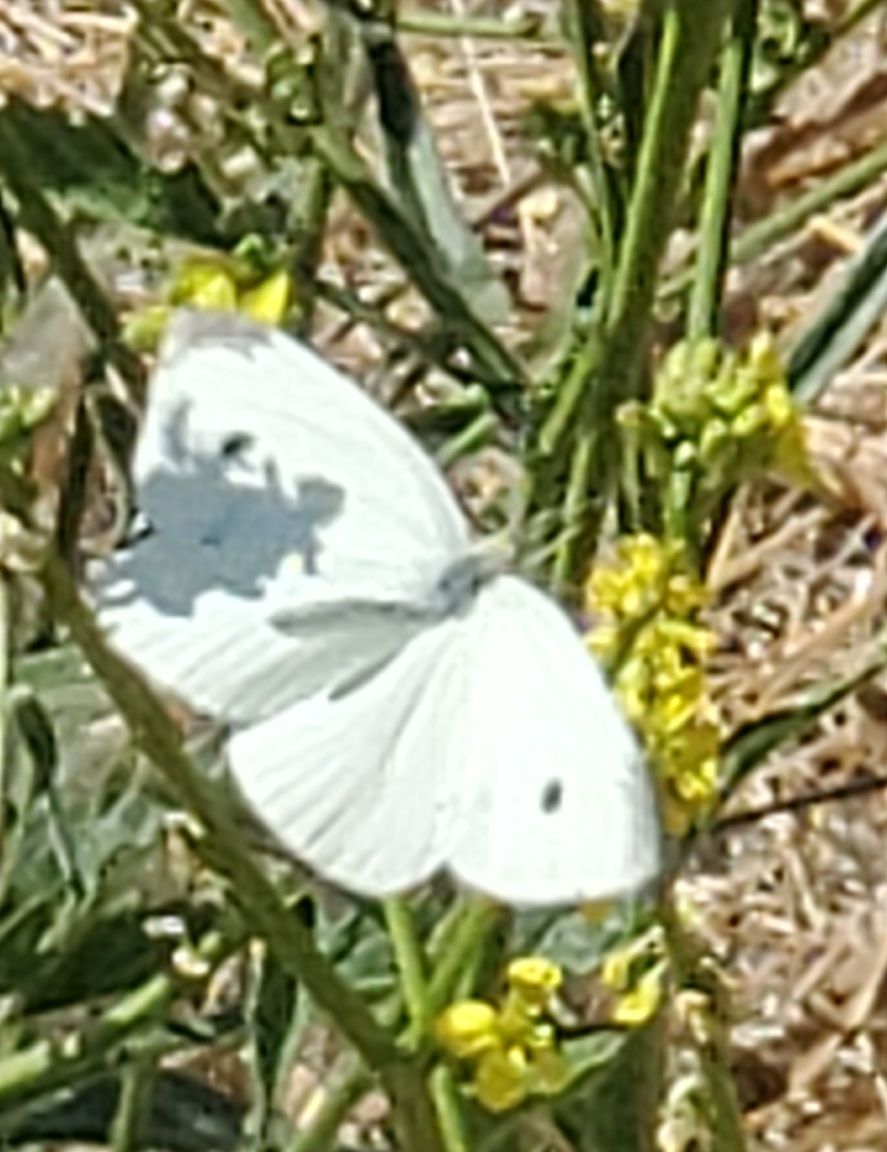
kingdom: Animalia
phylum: Arthropoda
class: Insecta
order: Lepidoptera
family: Pieridae
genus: Pieris
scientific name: Pieris rapae
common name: Small white
